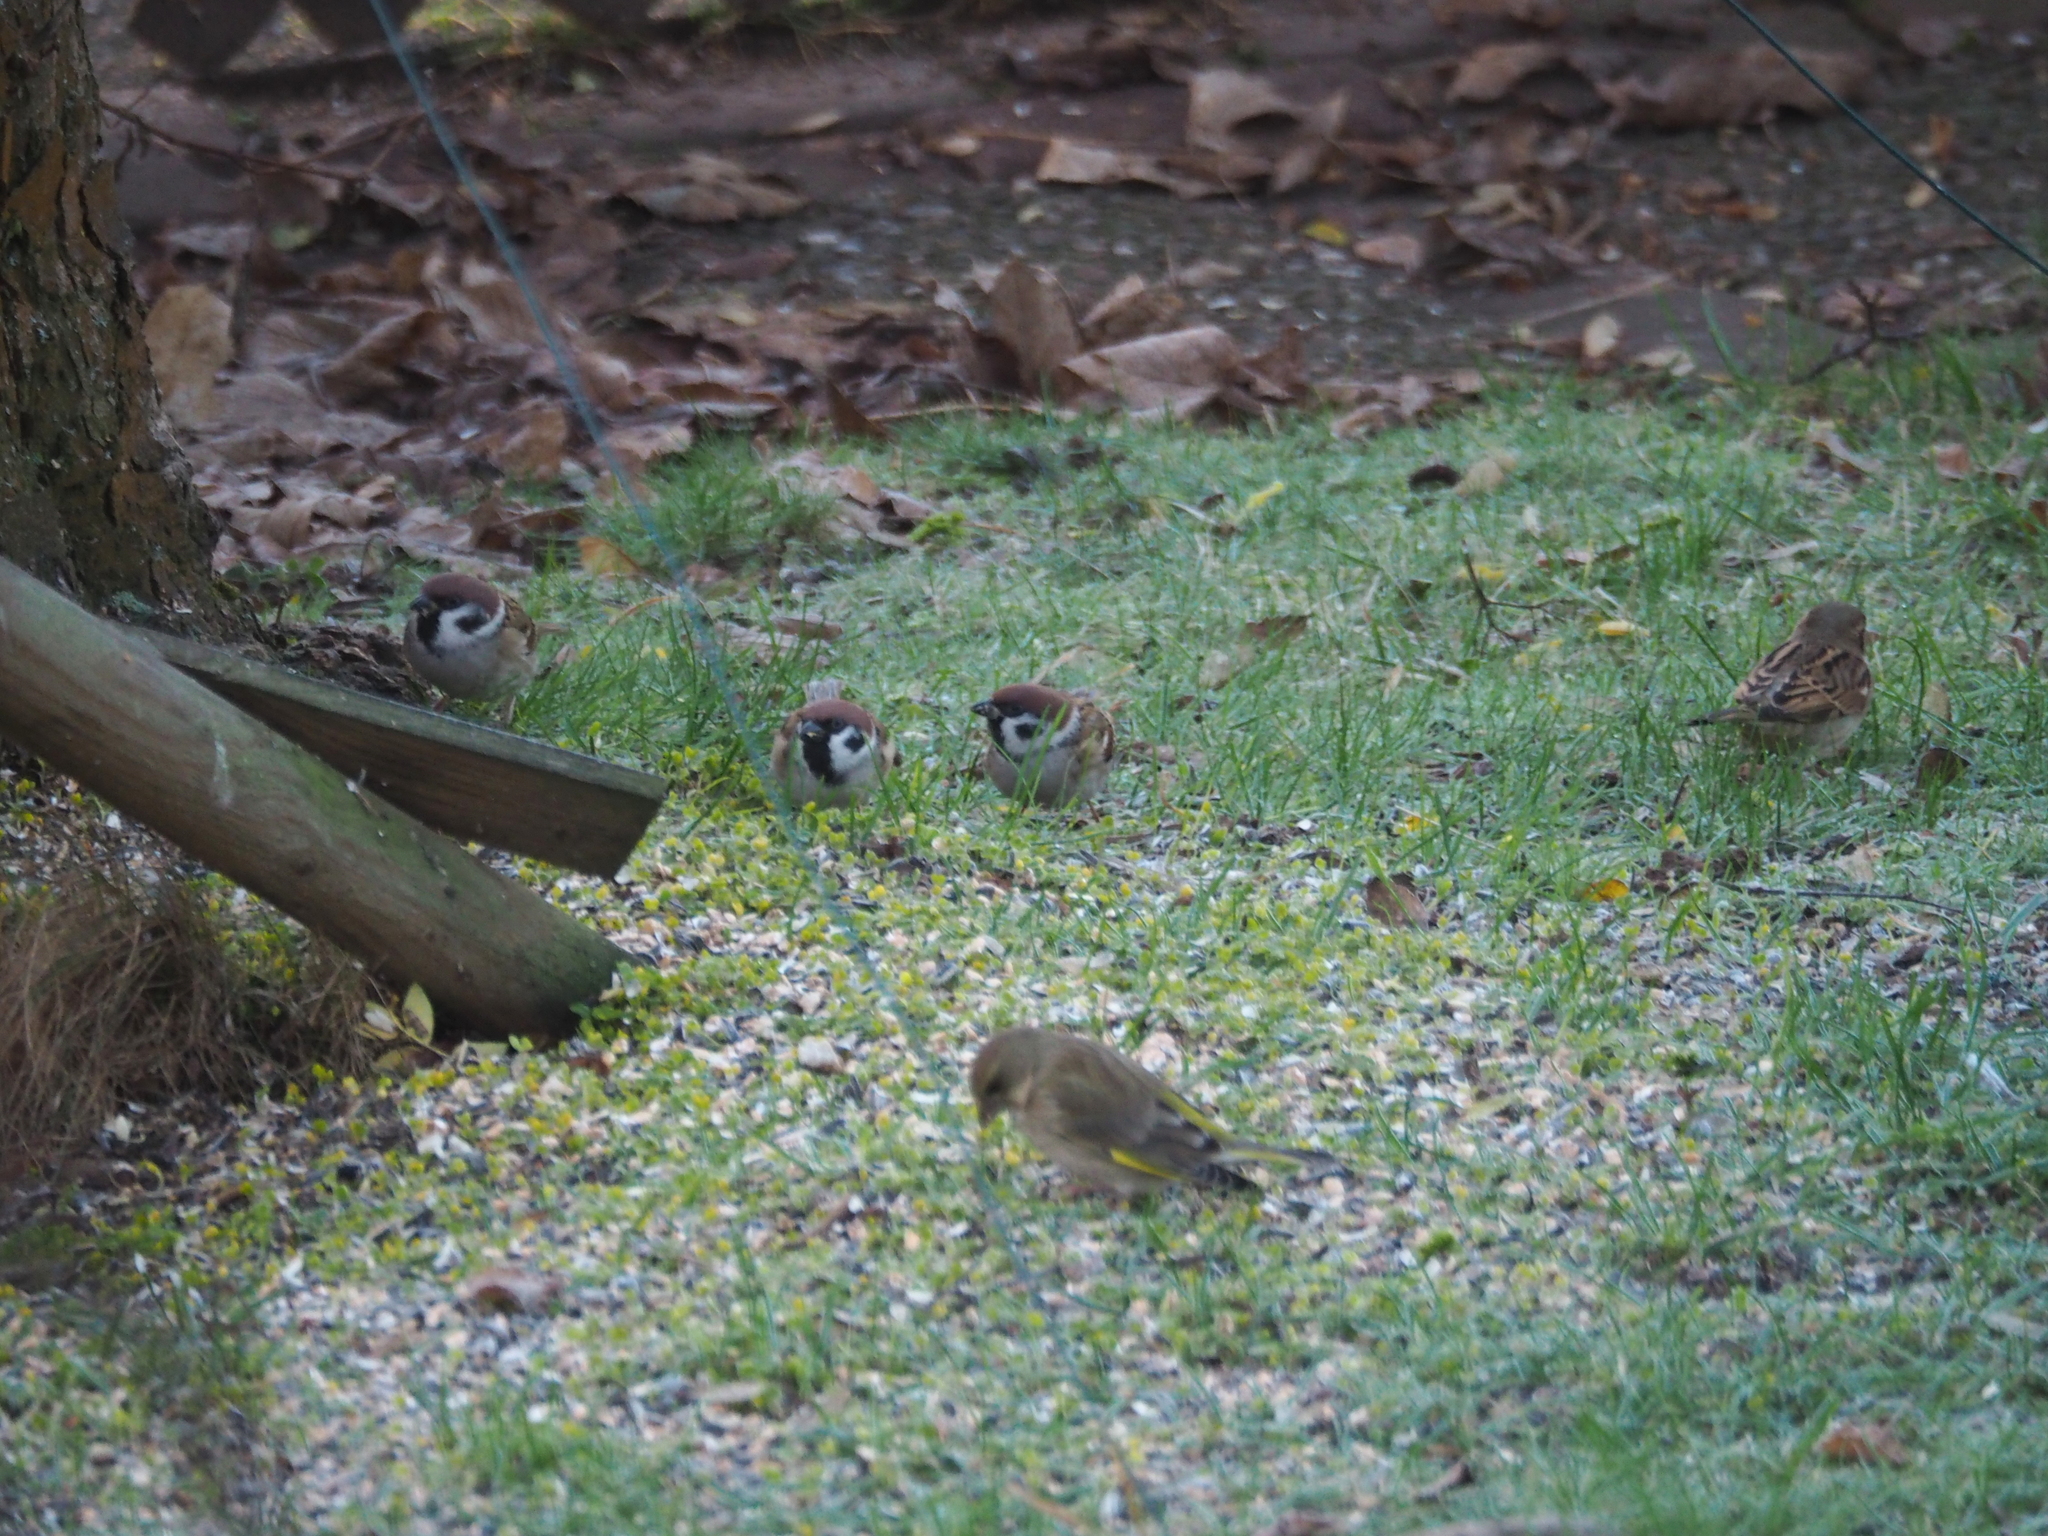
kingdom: Animalia
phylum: Chordata
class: Aves
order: Passeriformes
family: Passeridae
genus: Passer
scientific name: Passer montanus
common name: Eurasian tree sparrow
